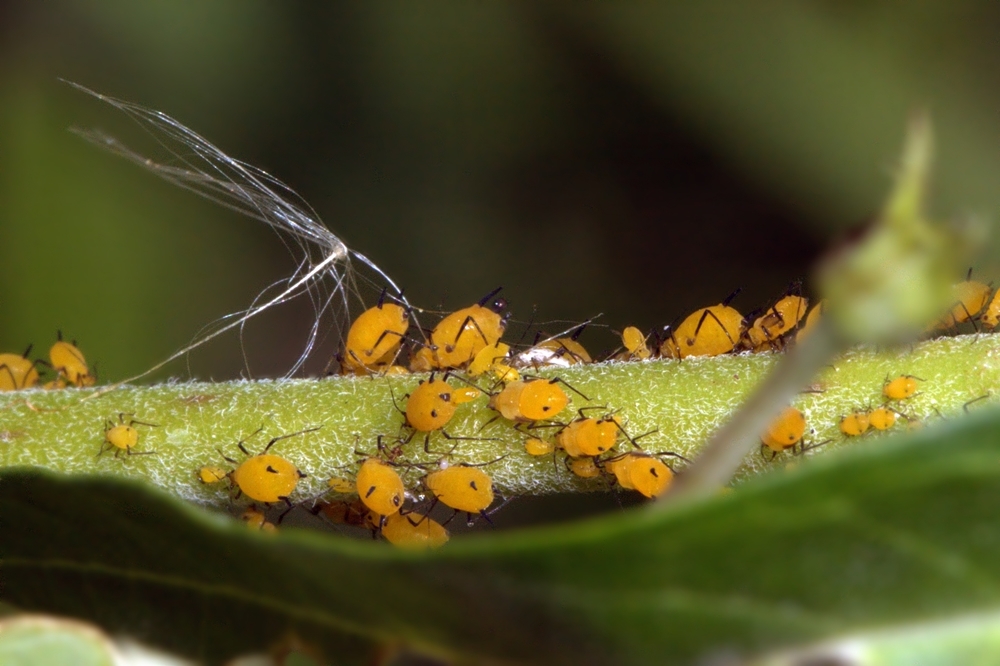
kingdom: Animalia
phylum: Arthropoda
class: Insecta
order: Hemiptera
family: Aphididae
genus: Aphis
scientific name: Aphis nerii
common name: Oleander aphid
